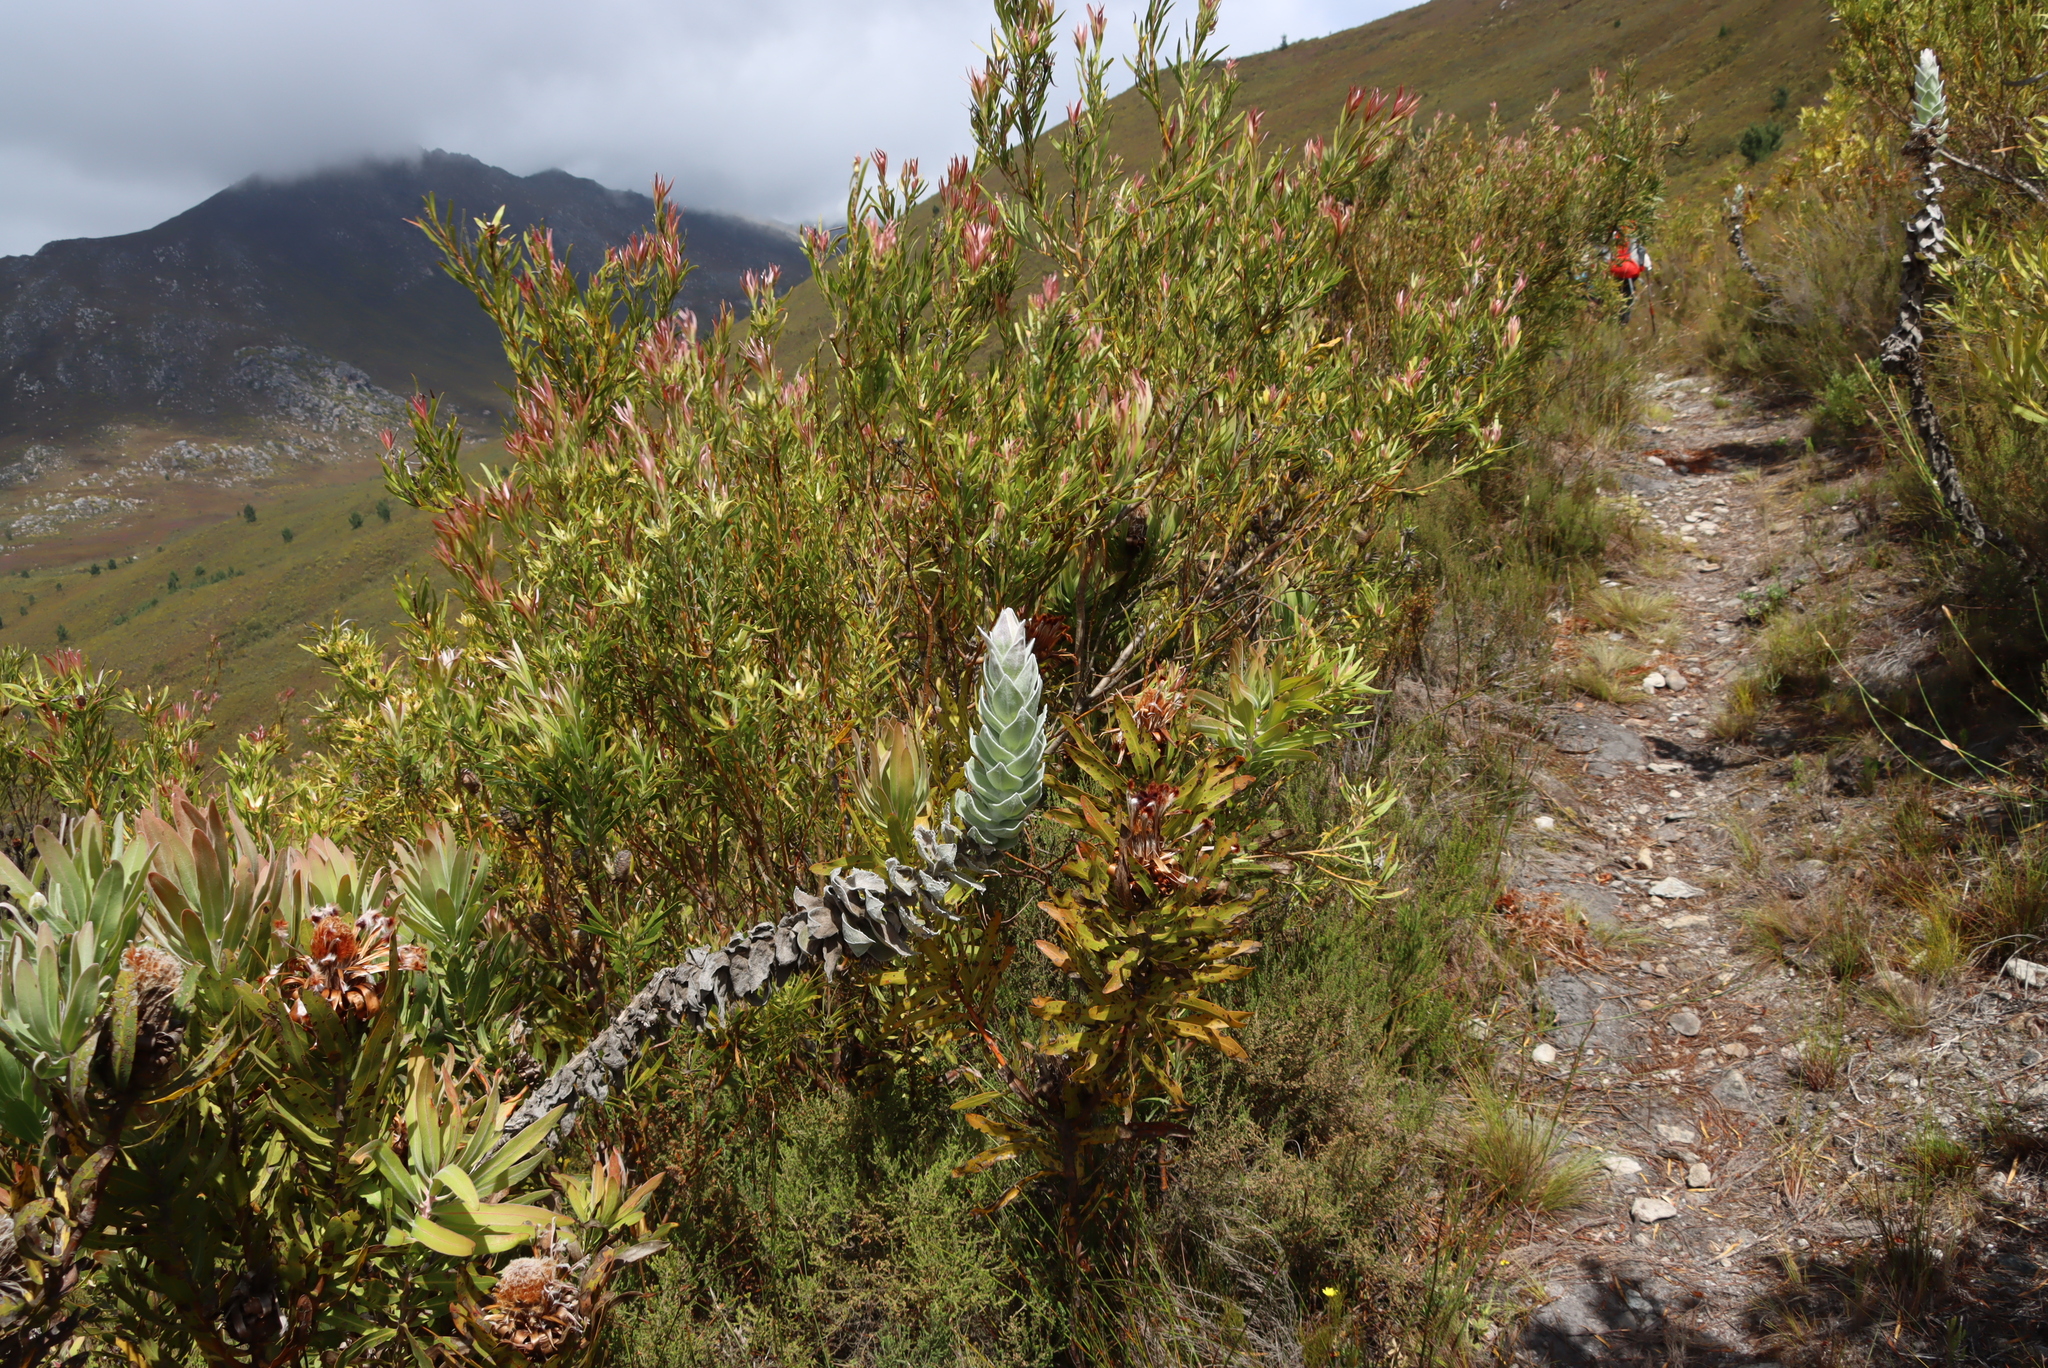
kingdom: Plantae
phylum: Tracheophyta
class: Magnoliopsida
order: Asterales
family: Asteraceae
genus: Syncarpha
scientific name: Syncarpha eximia
